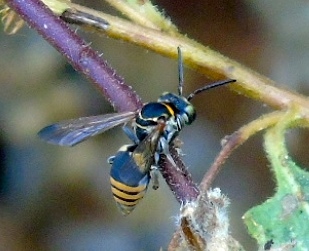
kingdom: Animalia
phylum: Arthropoda
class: Insecta
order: Hymenoptera
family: Apidae
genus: Triepeolus
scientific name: Triepeolus
